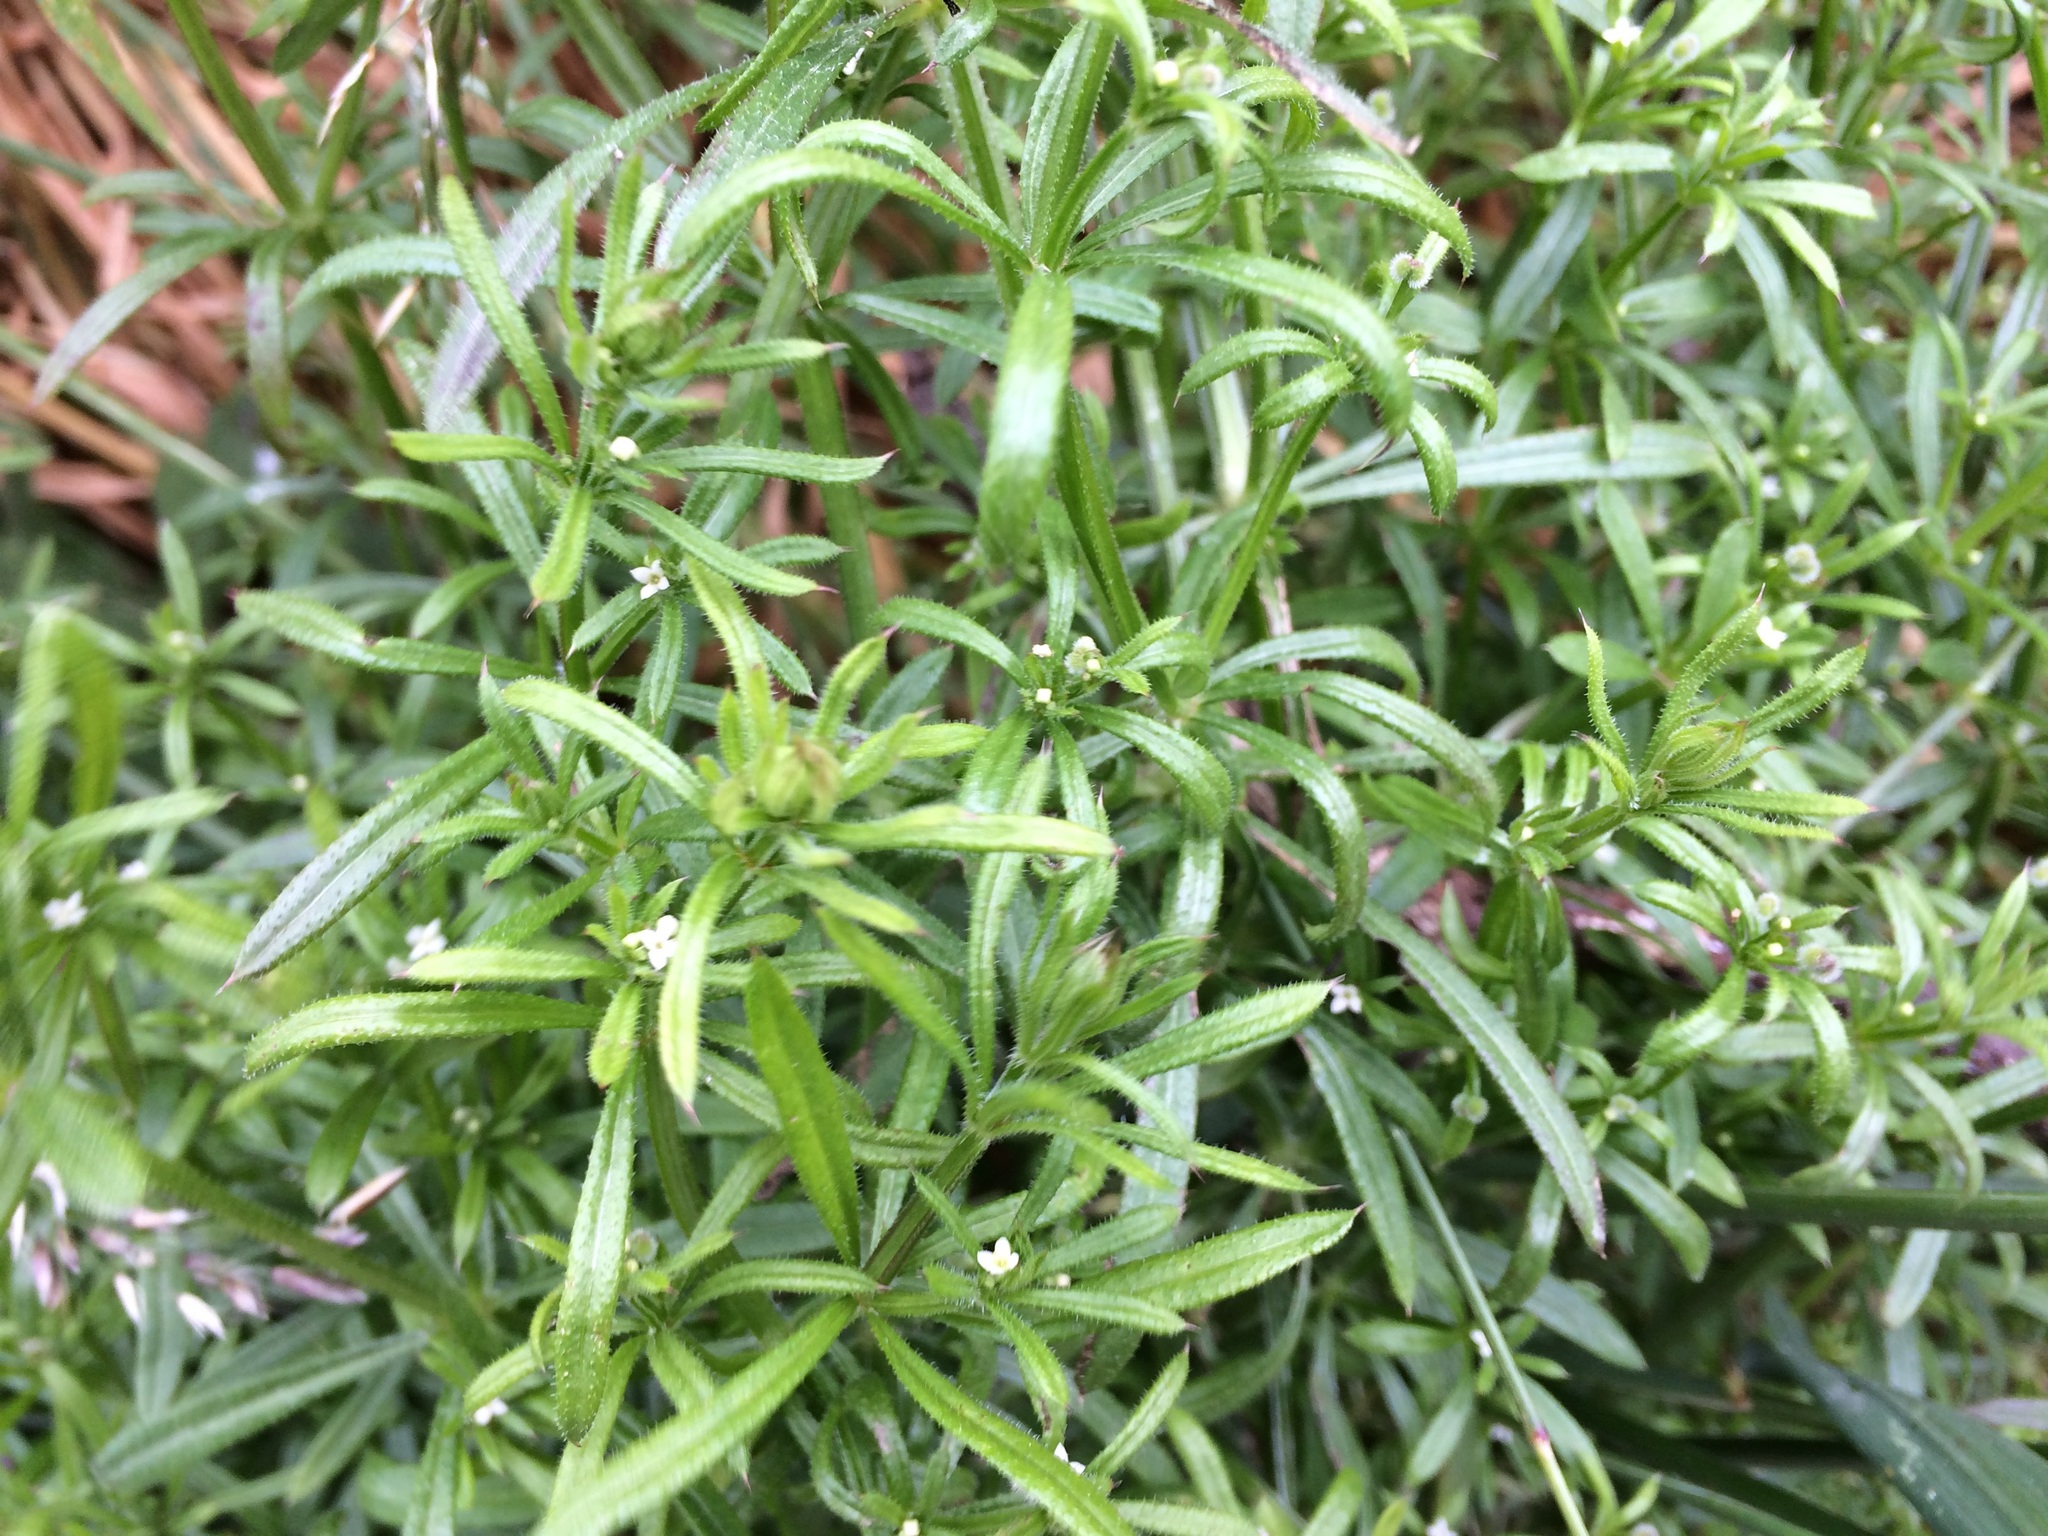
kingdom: Plantae
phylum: Tracheophyta
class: Magnoliopsida
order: Gentianales
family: Rubiaceae
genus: Galium
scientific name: Galium aparine
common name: Cleavers
